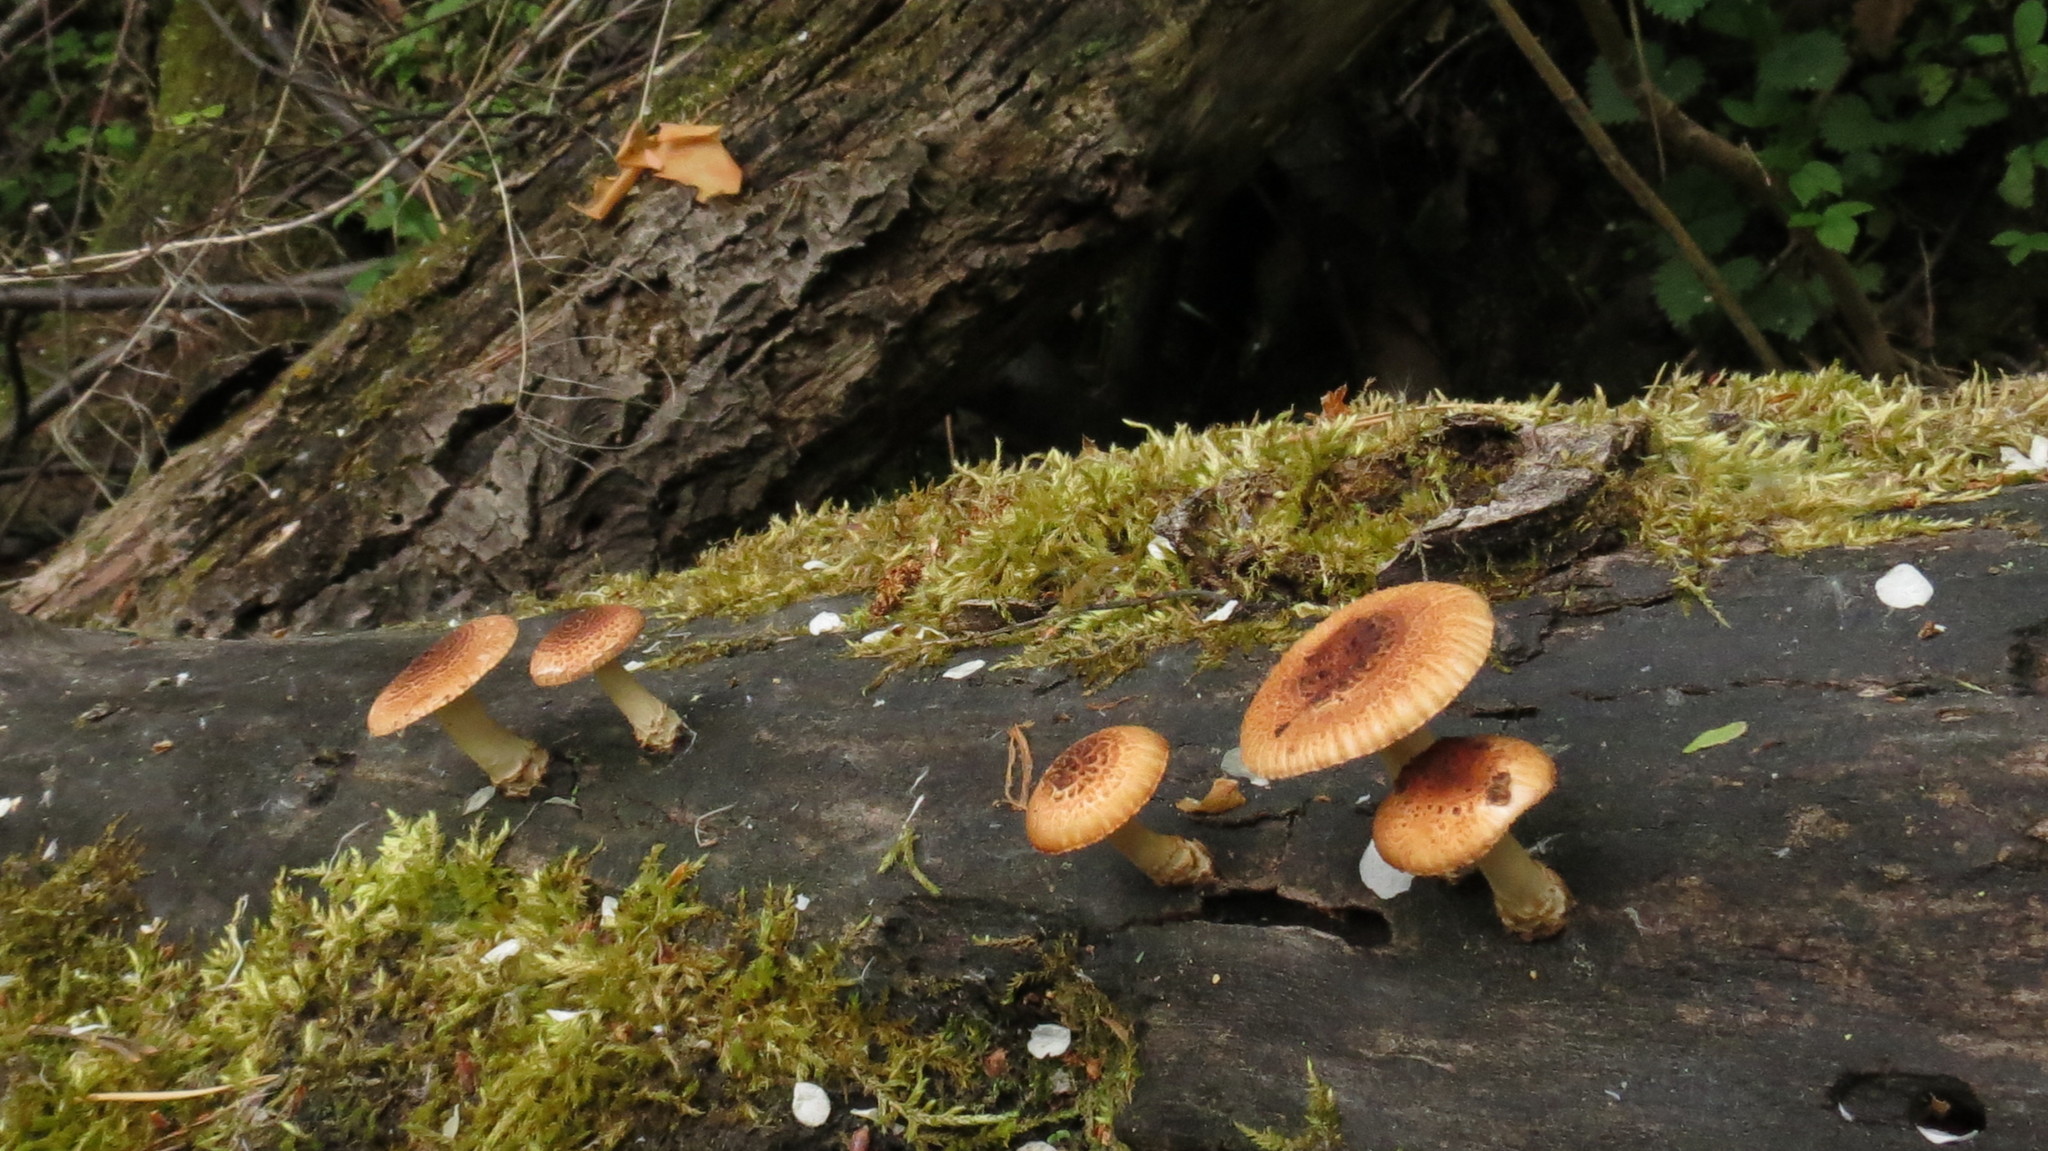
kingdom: Fungi
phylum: Basidiomycota
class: Agaricomycetes
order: Gloeophyllales
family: Gloeophyllaceae
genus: Heliocybe
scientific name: Heliocybe sulcata
